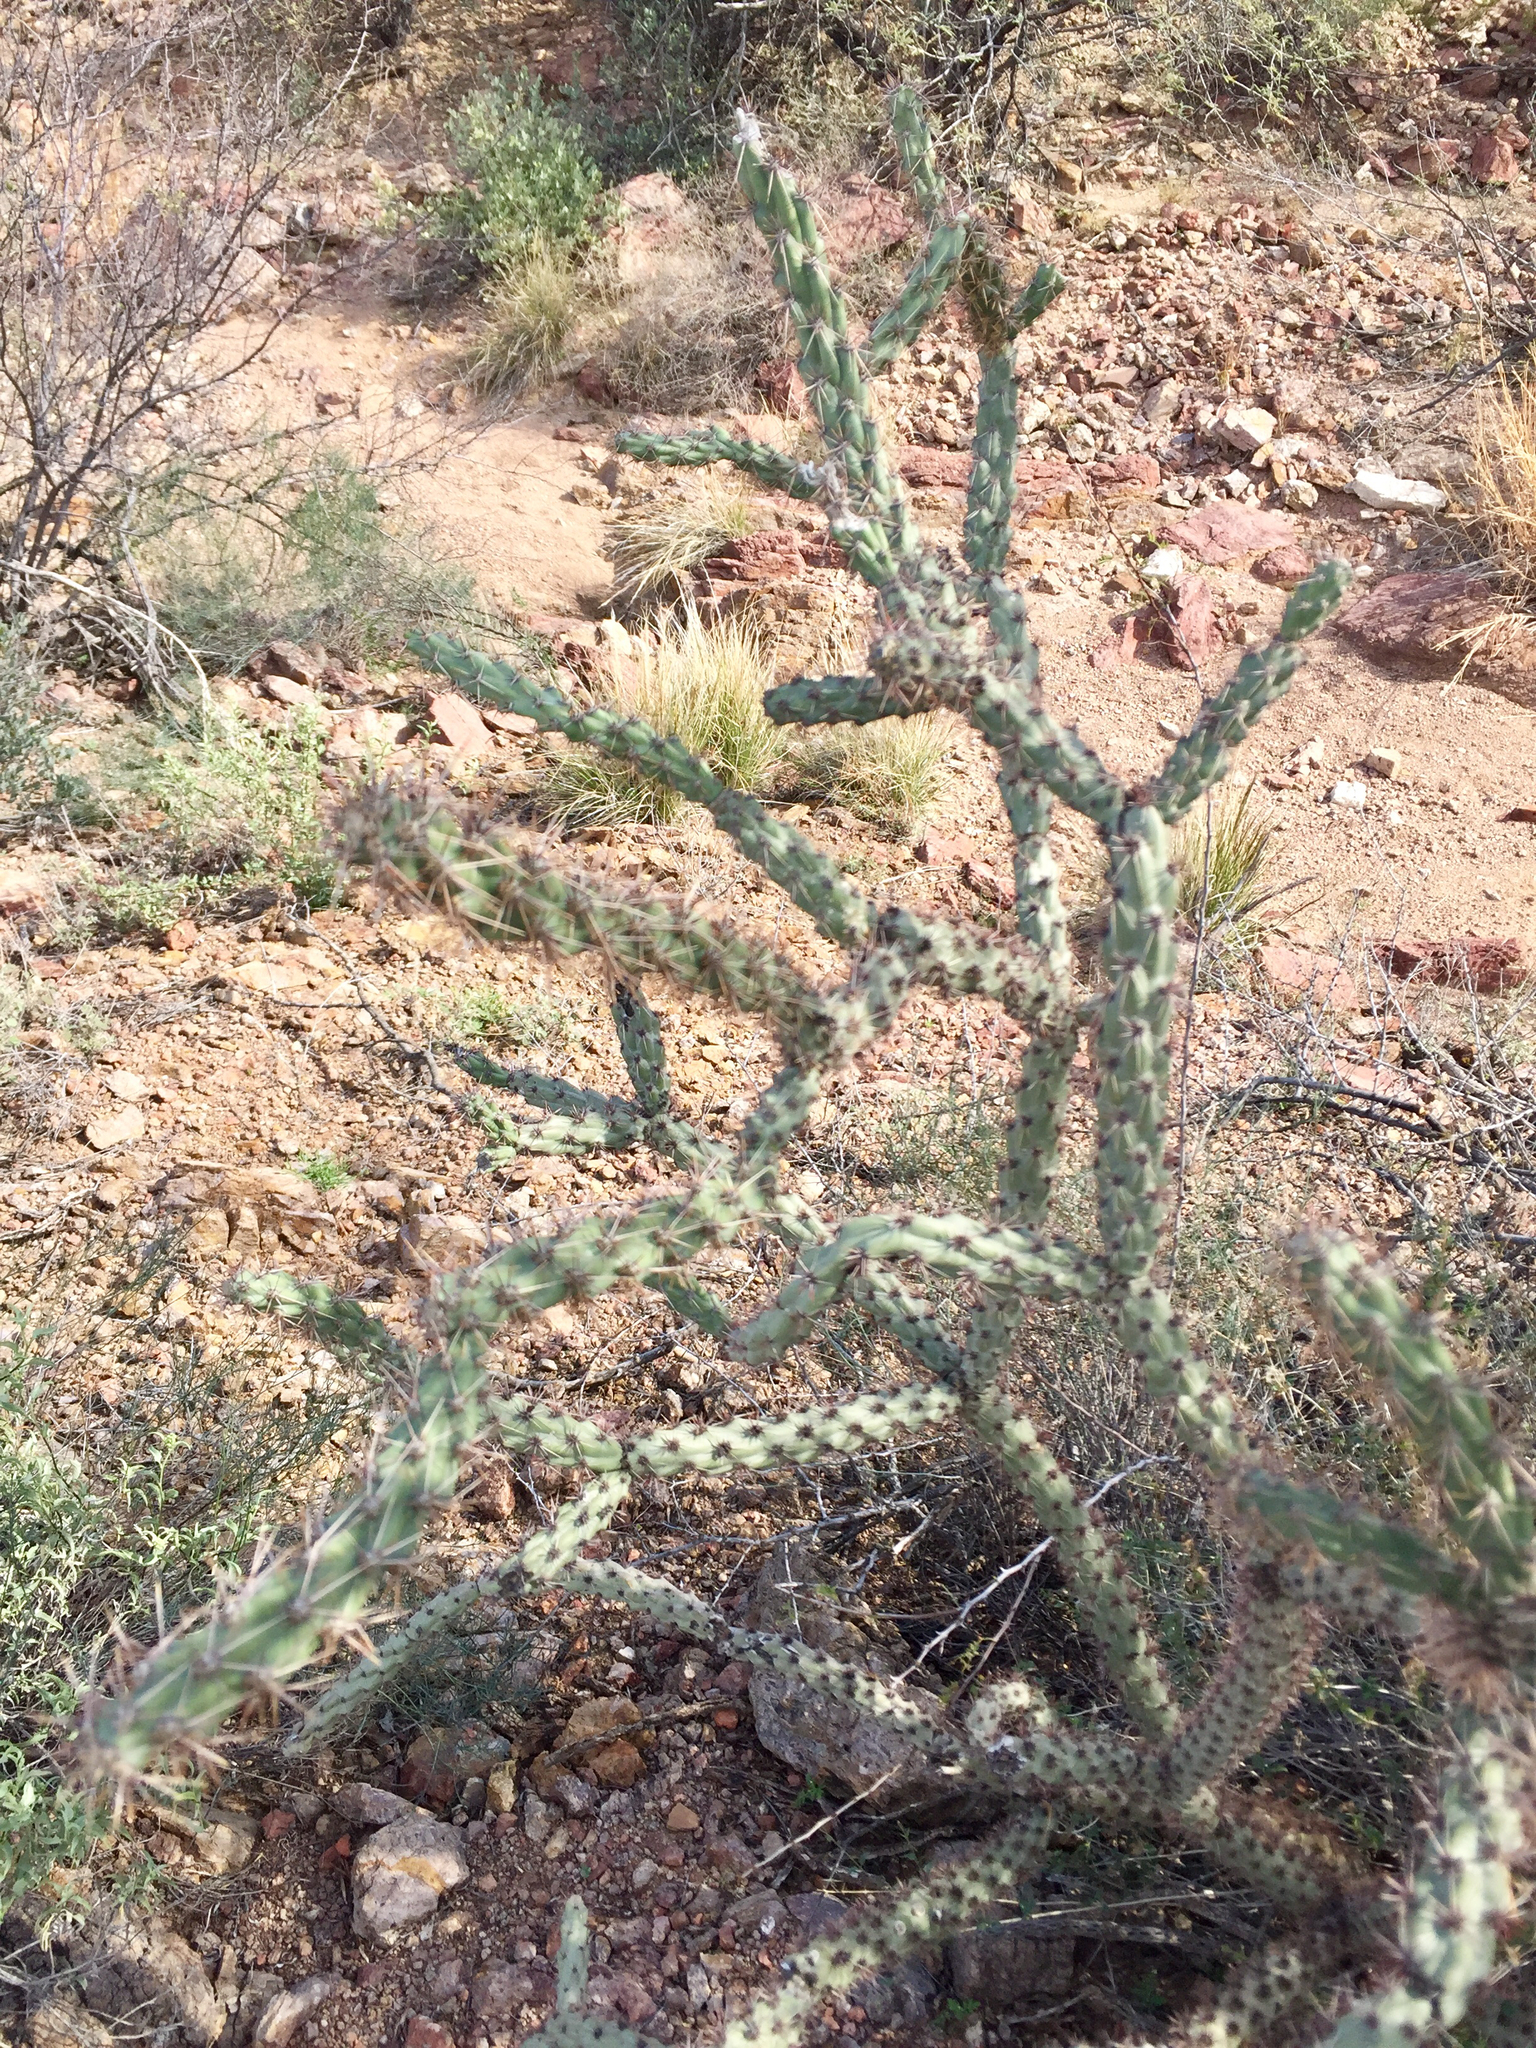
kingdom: Plantae
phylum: Tracheophyta
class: Magnoliopsida
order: Caryophyllales
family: Cactaceae
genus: Cylindropuntia
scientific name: Cylindropuntia acanthocarpa
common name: Buckhorn cholla
